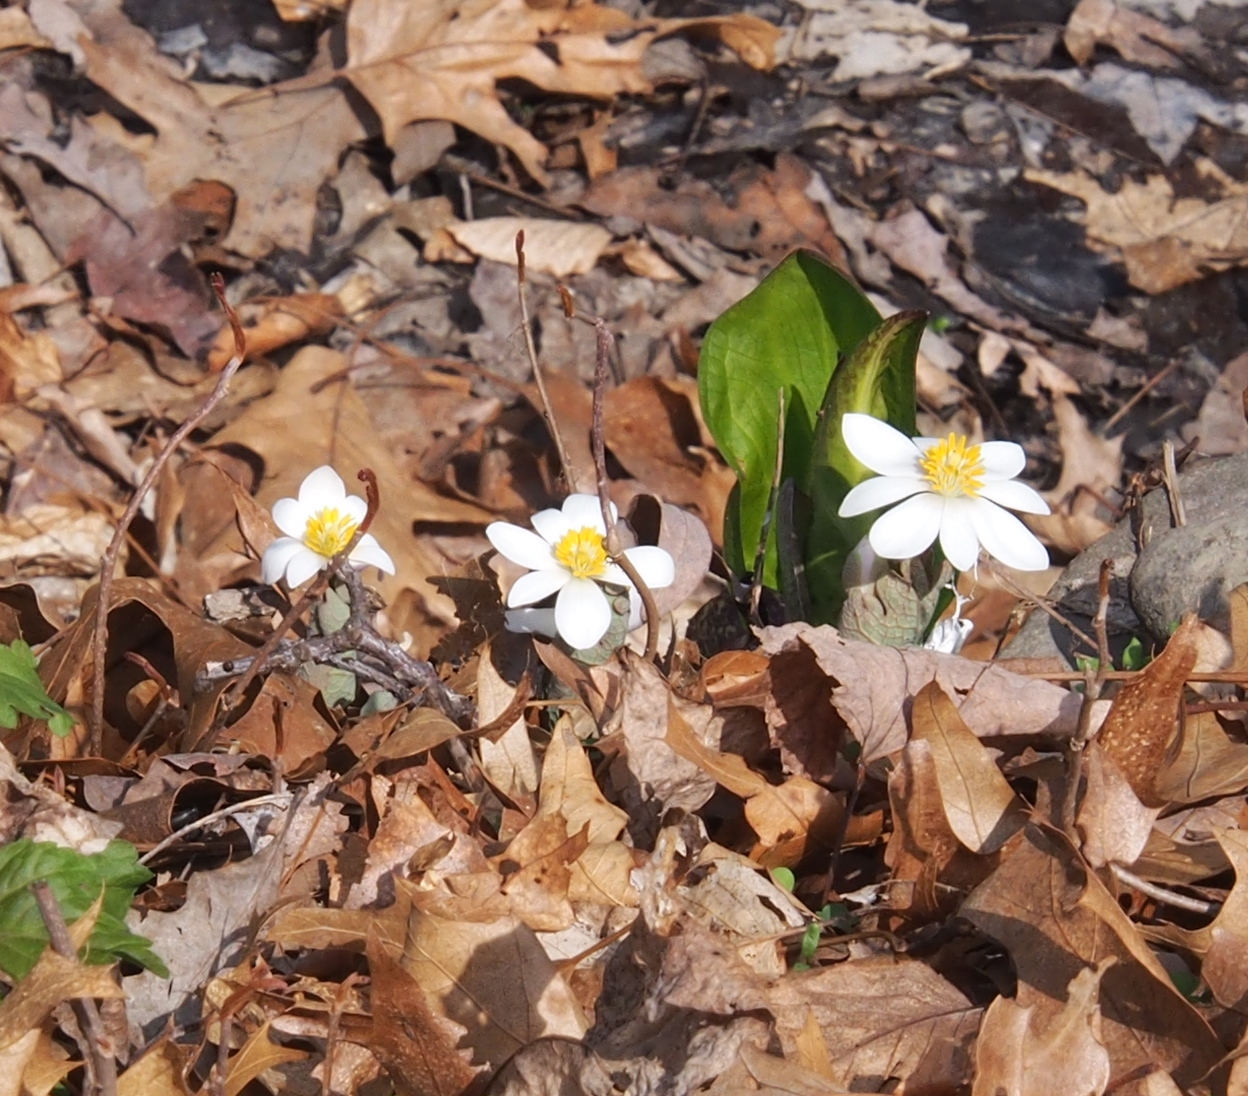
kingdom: Plantae
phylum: Tracheophyta
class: Magnoliopsida
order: Ranunculales
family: Papaveraceae
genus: Sanguinaria
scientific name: Sanguinaria canadensis
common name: Bloodroot
